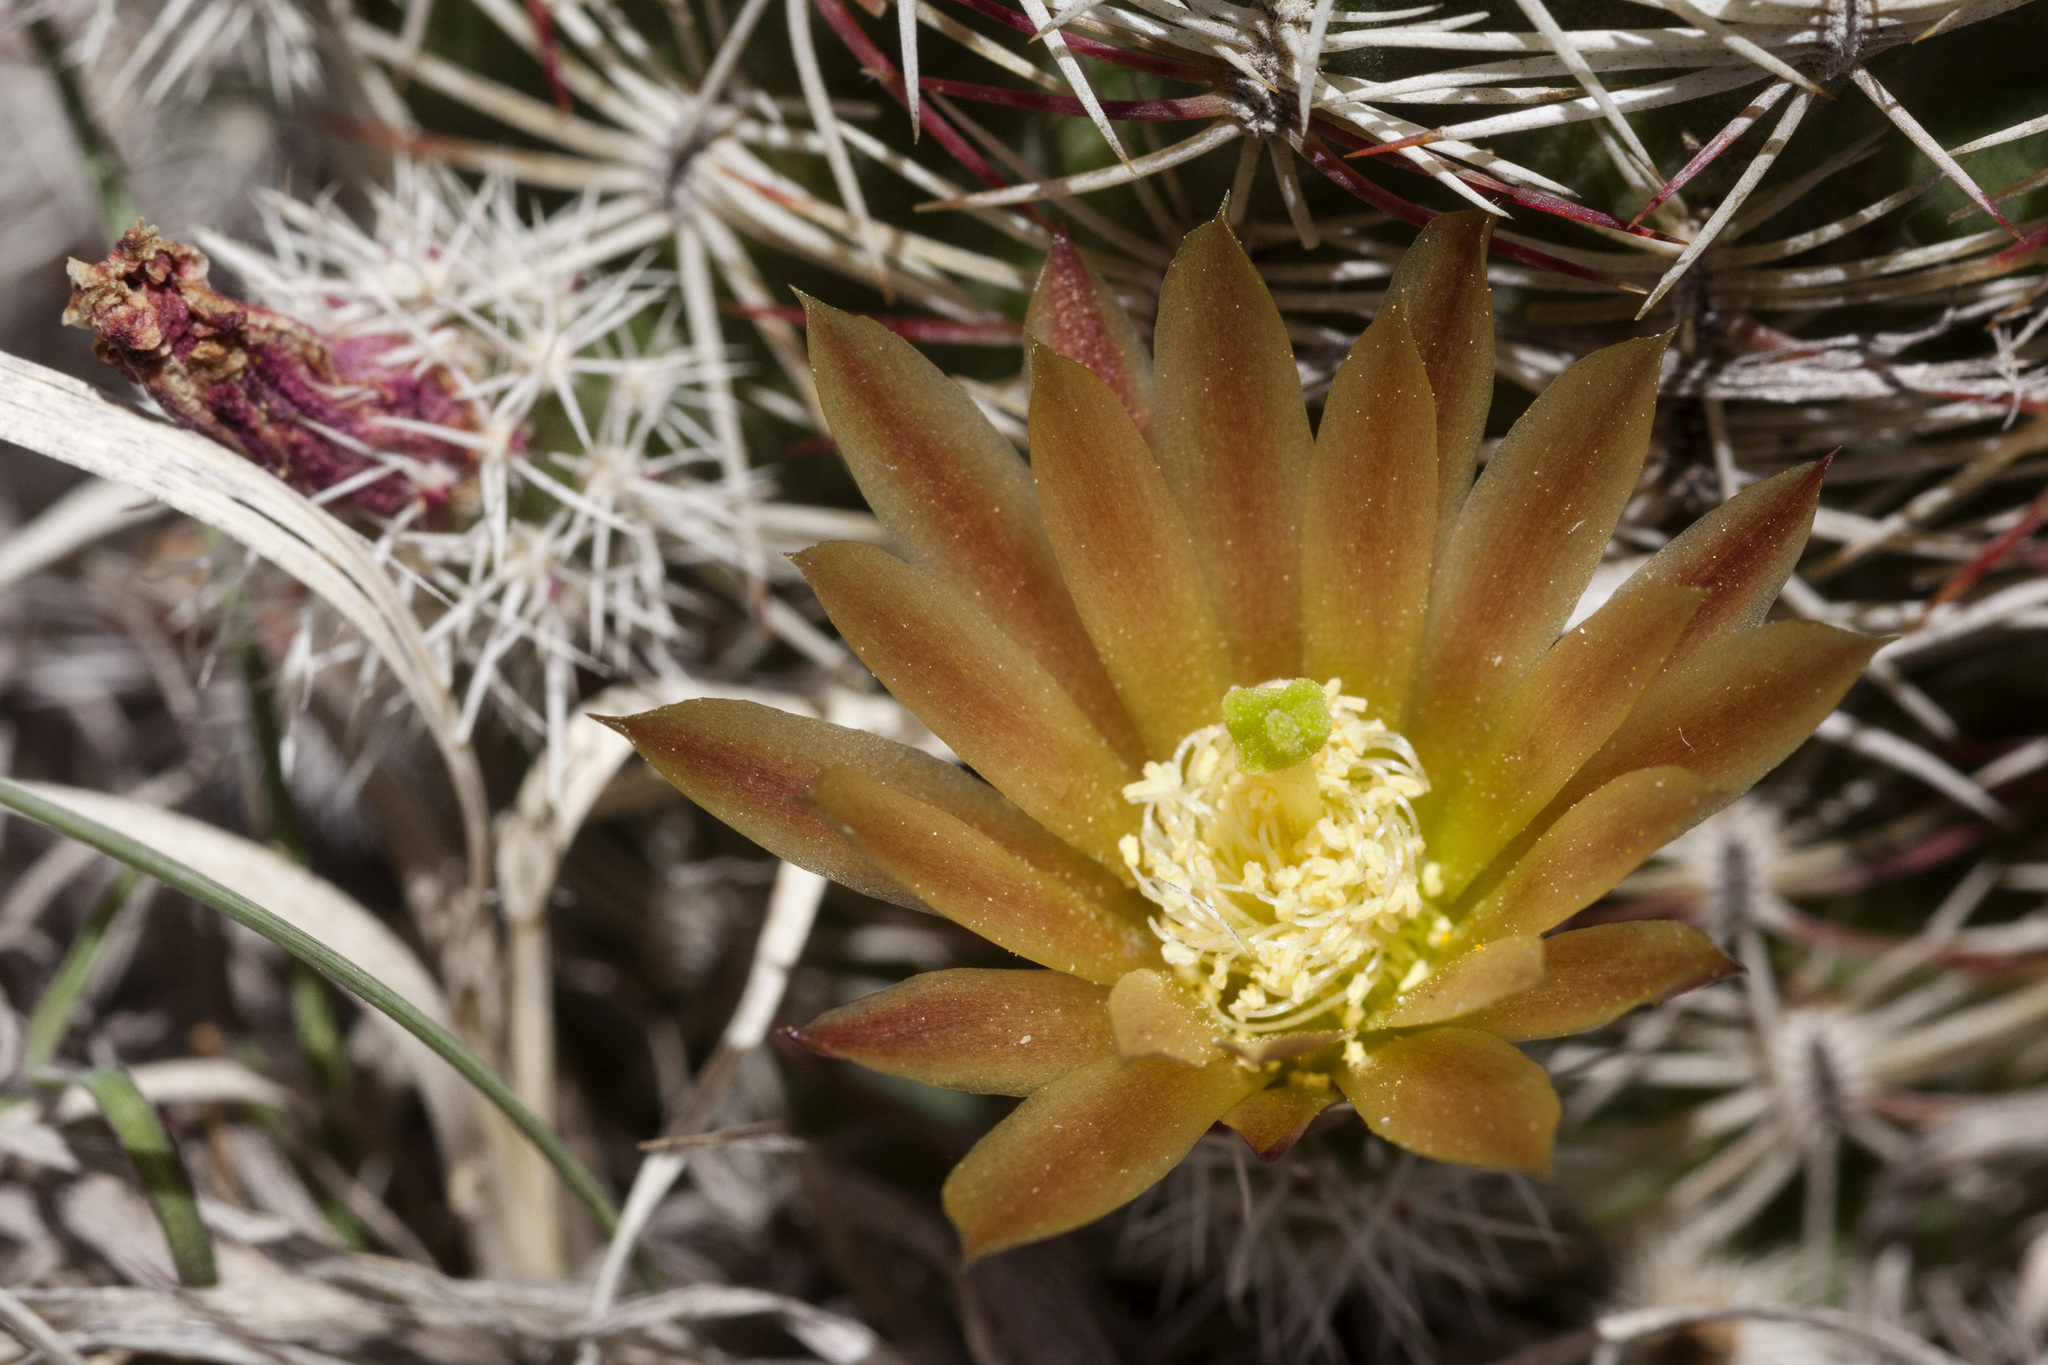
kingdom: Plantae
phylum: Tracheophyta
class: Magnoliopsida
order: Caryophyllales
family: Cactaceae
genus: Echinocereus
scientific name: Echinocereus viridiflorus
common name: Nylon hedgehog cactus
